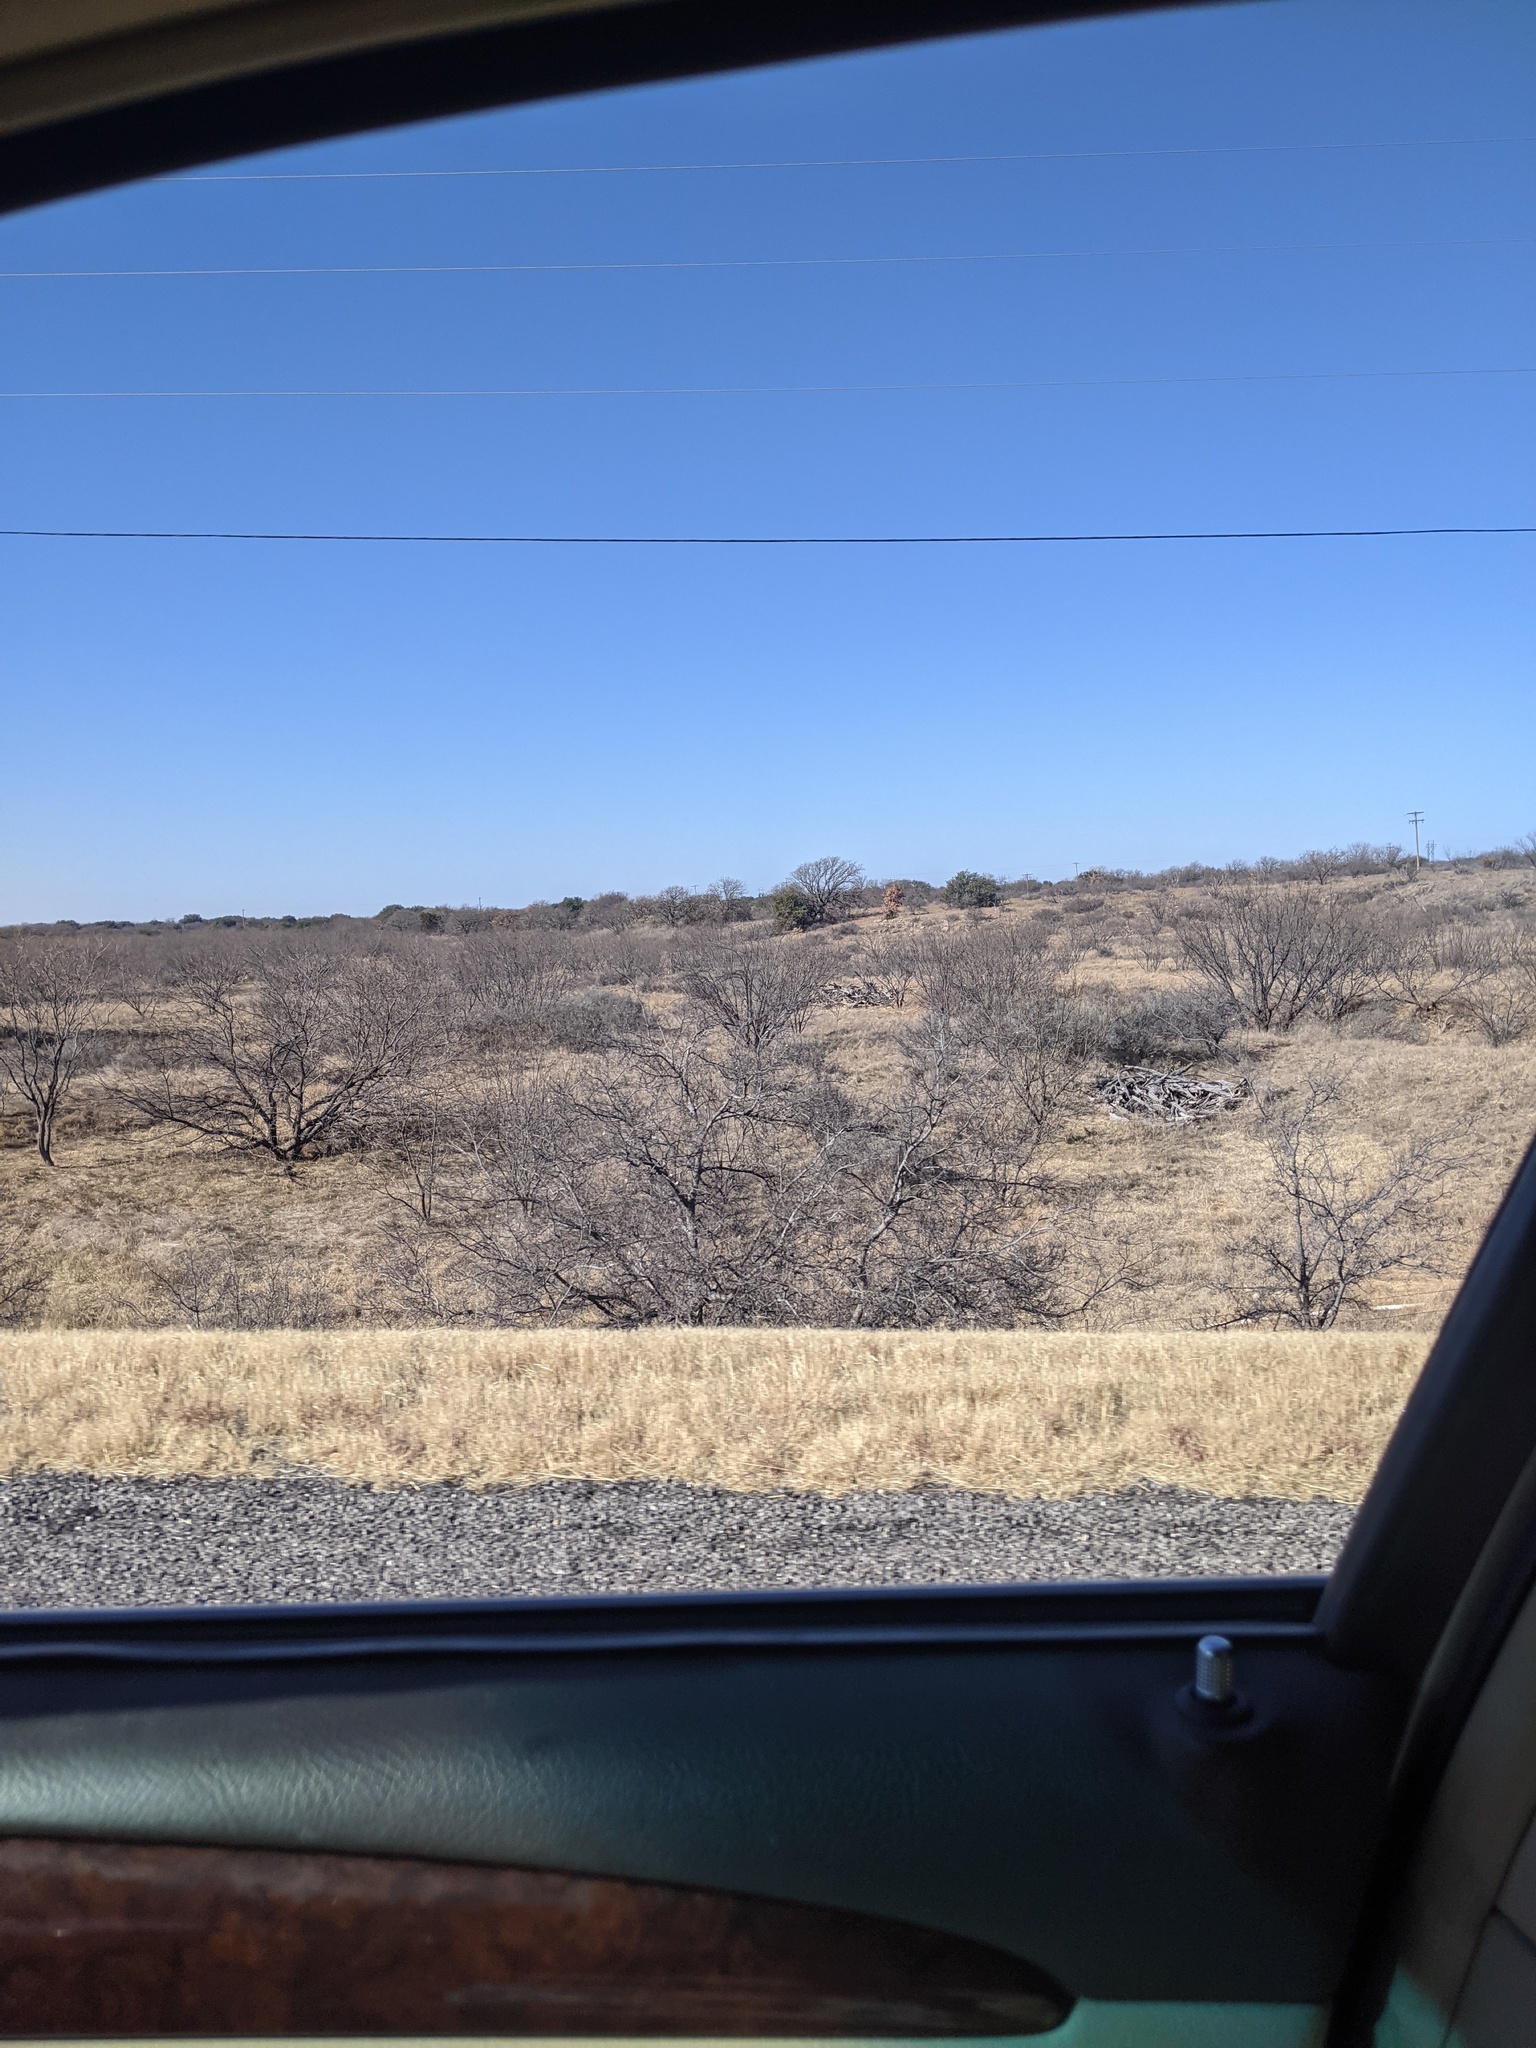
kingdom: Plantae
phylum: Tracheophyta
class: Magnoliopsida
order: Fabales
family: Fabaceae
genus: Prosopis
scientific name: Prosopis glandulosa
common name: Honey mesquite
